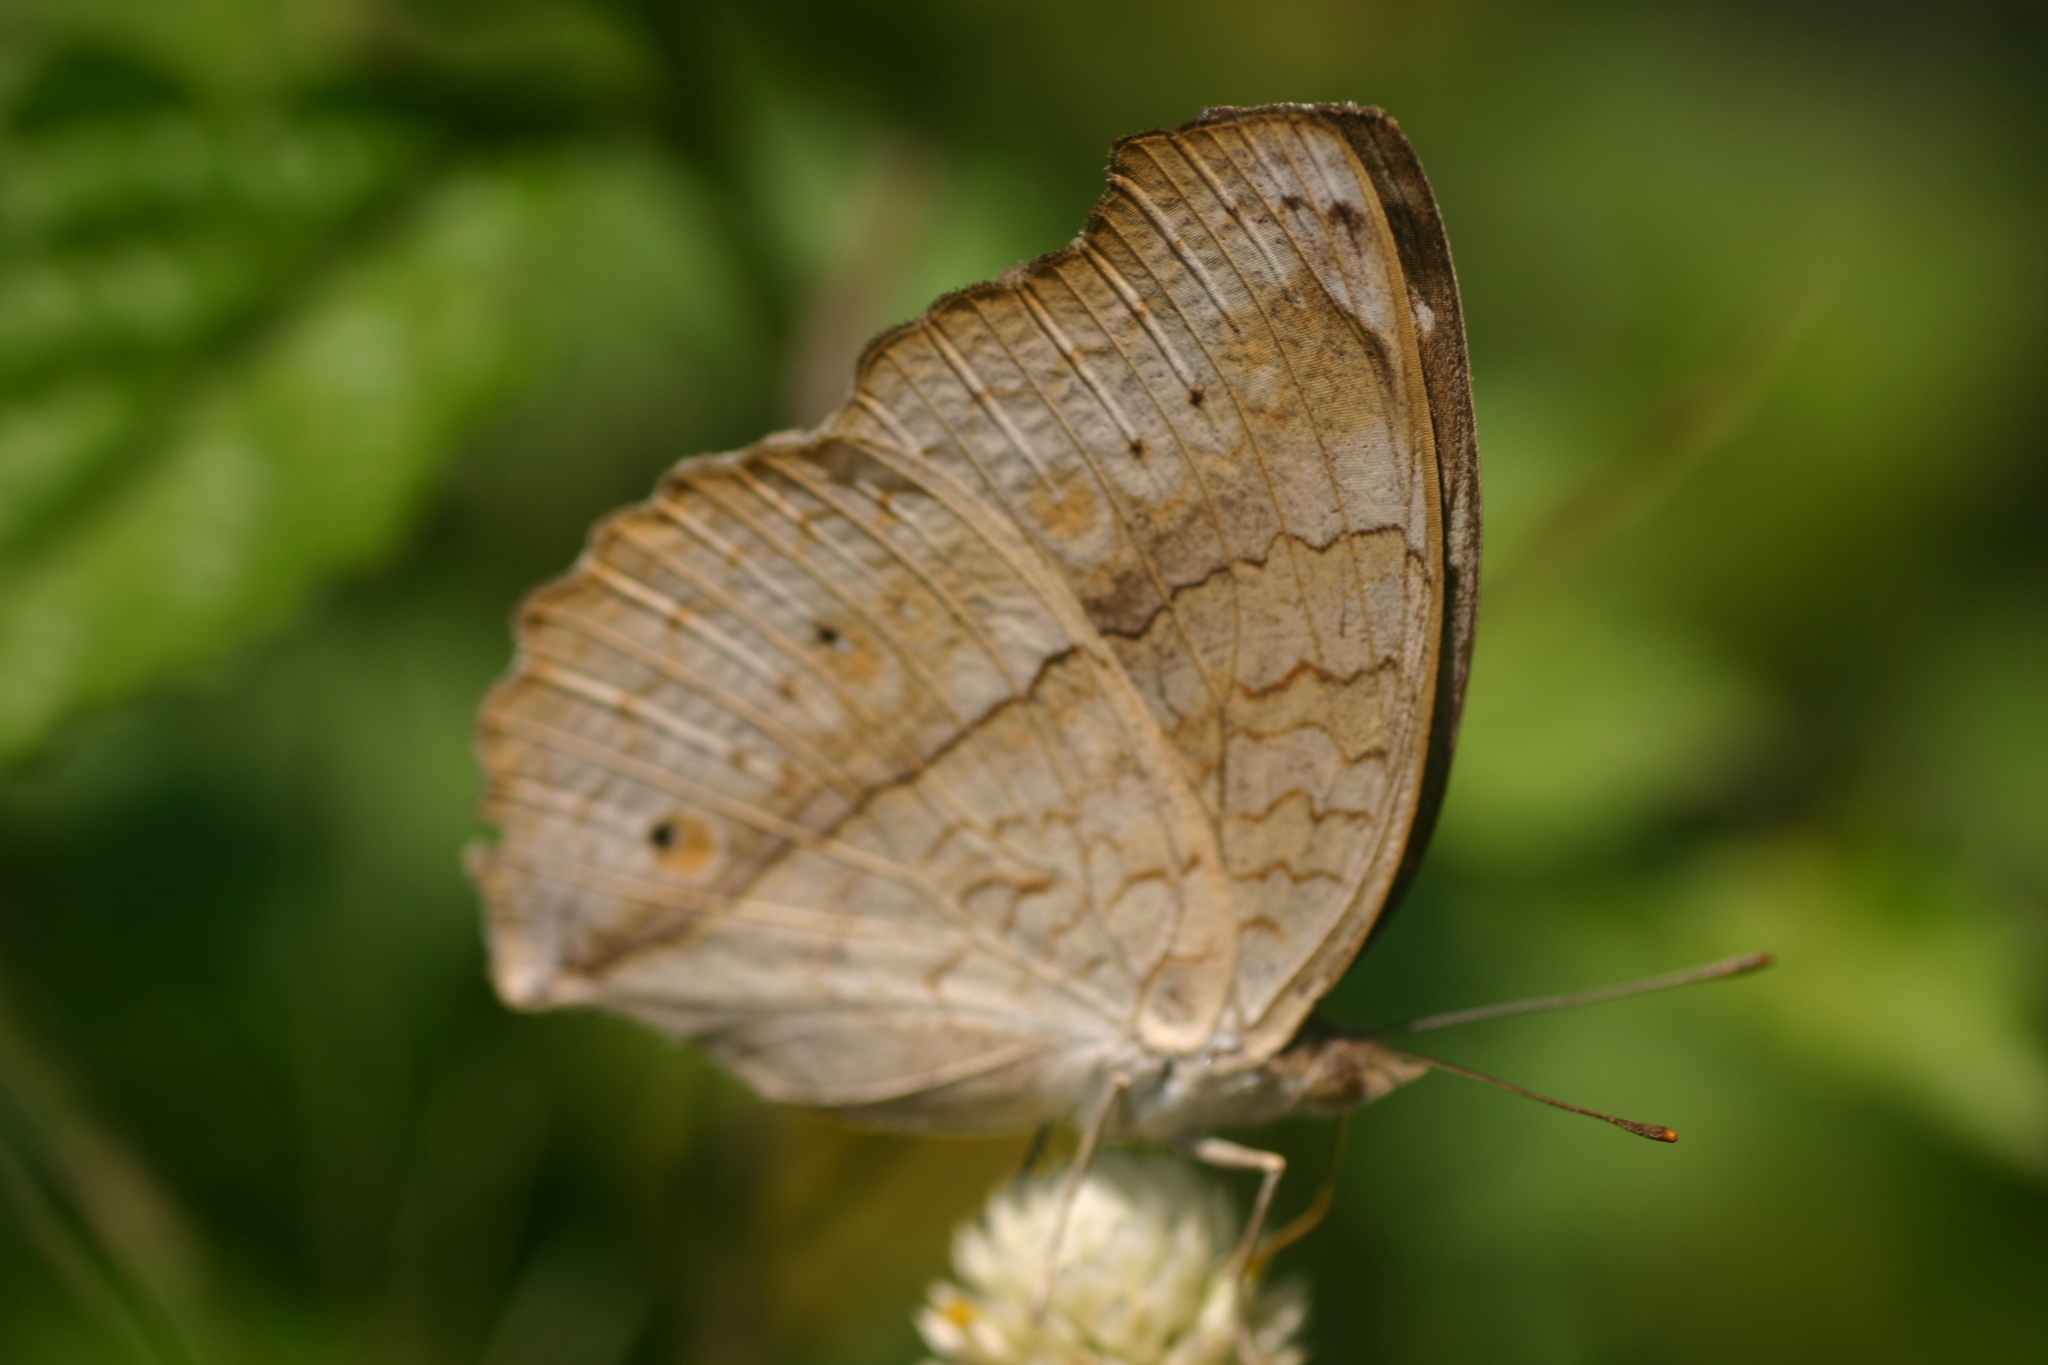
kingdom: Animalia
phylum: Arthropoda
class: Insecta
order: Lepidoptera
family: Nymphalidae
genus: Junonia
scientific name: Junonia atlites
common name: Grey pansy
